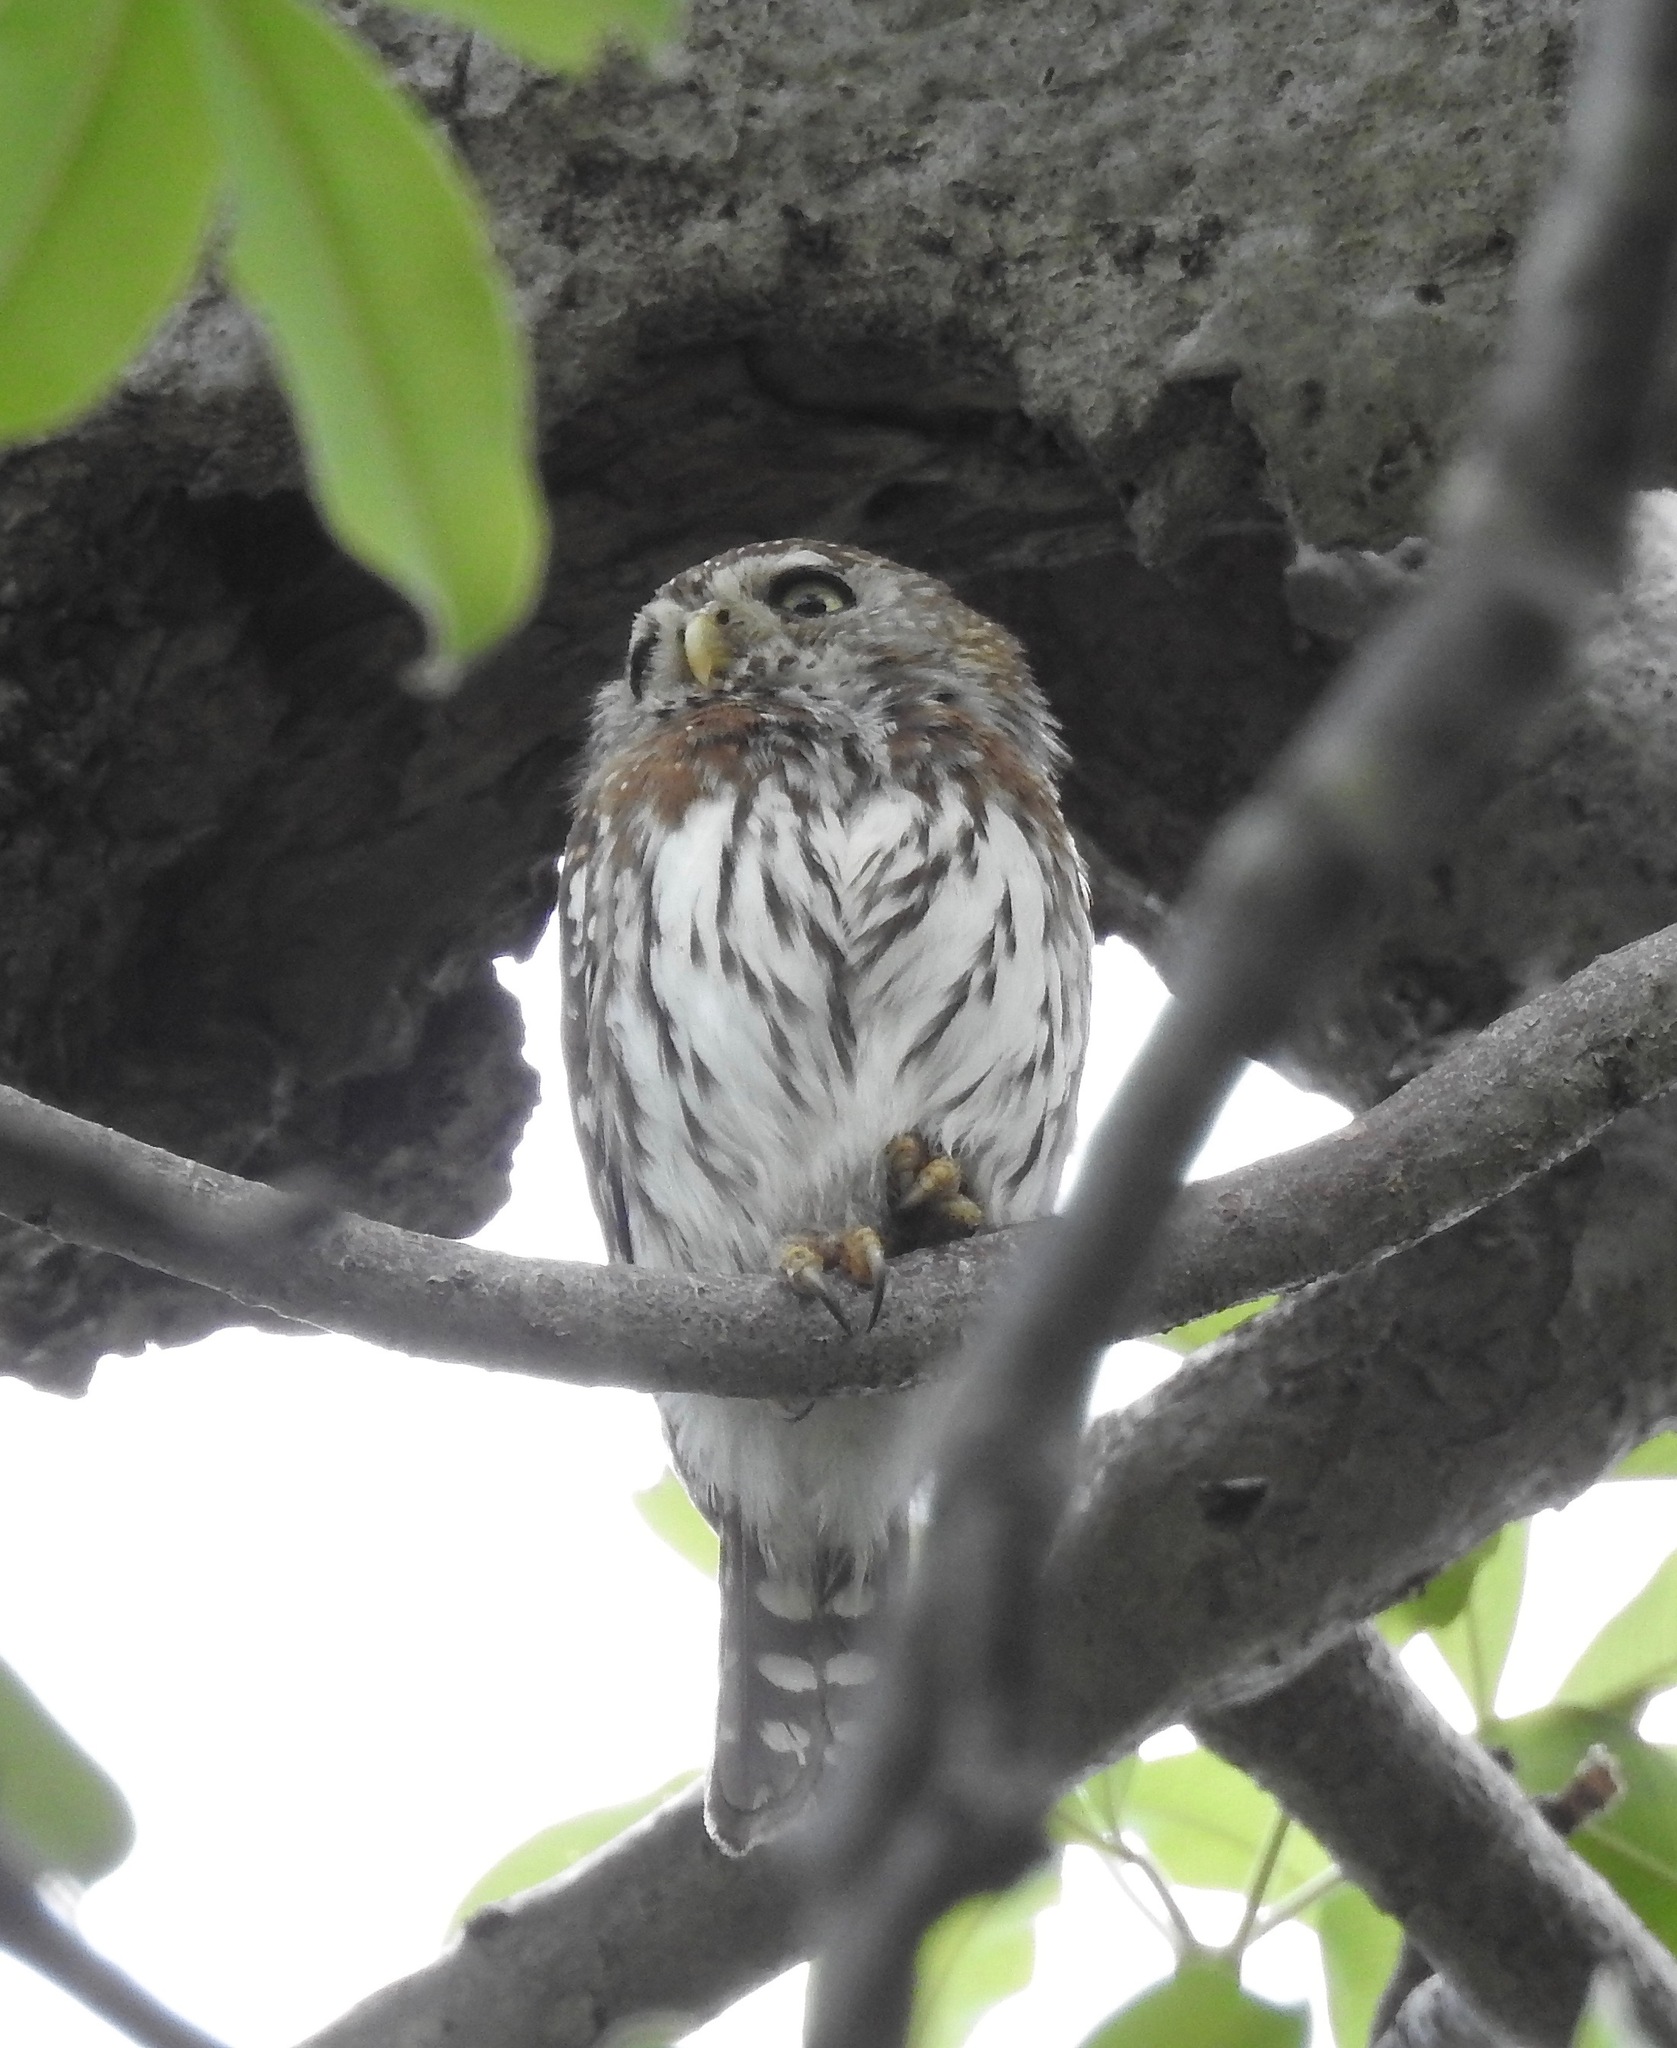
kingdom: Animalia
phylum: Chordata
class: Aves
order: Strigiformes
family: Strigidae
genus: Glaucidium
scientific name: Glaucidium perlatum
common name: Pearl-spotted owlet
